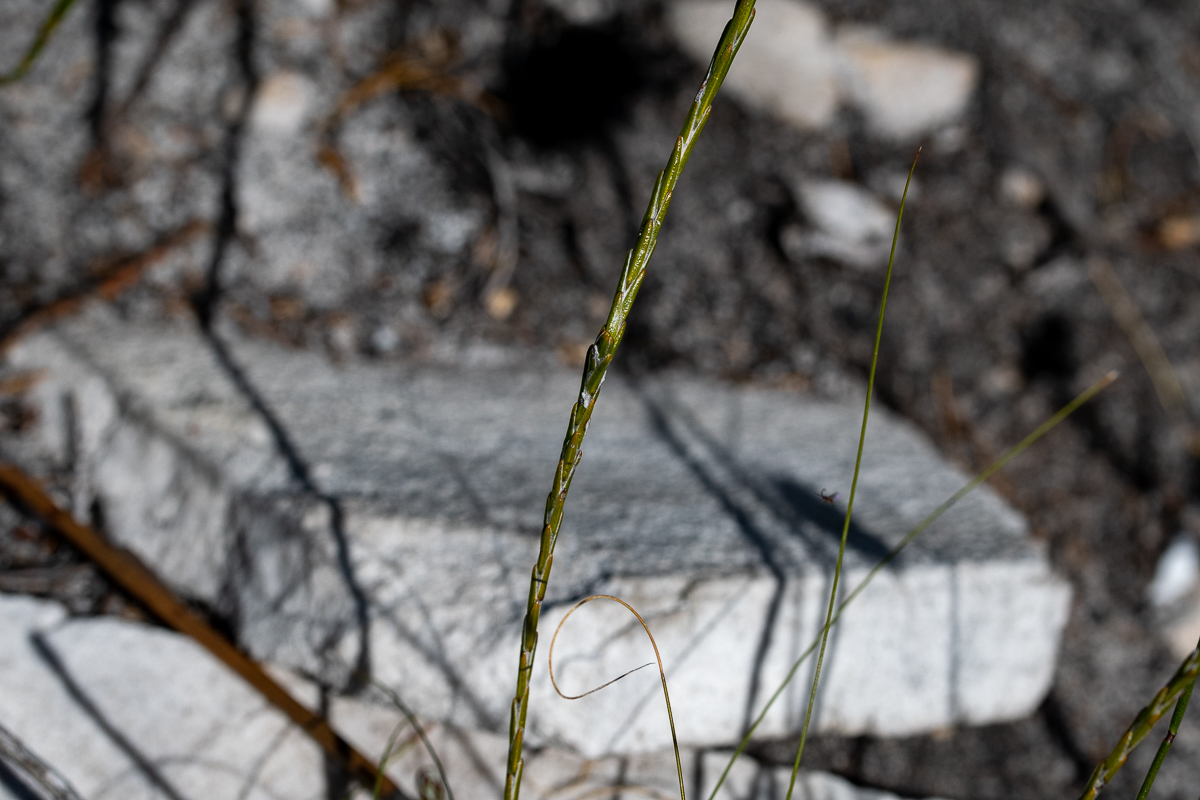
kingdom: Plantae
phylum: Tracheophyta
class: Magnoliopsida
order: Asterales
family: Asteraceae
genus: Edmondia
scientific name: Edmondia sesamoides
